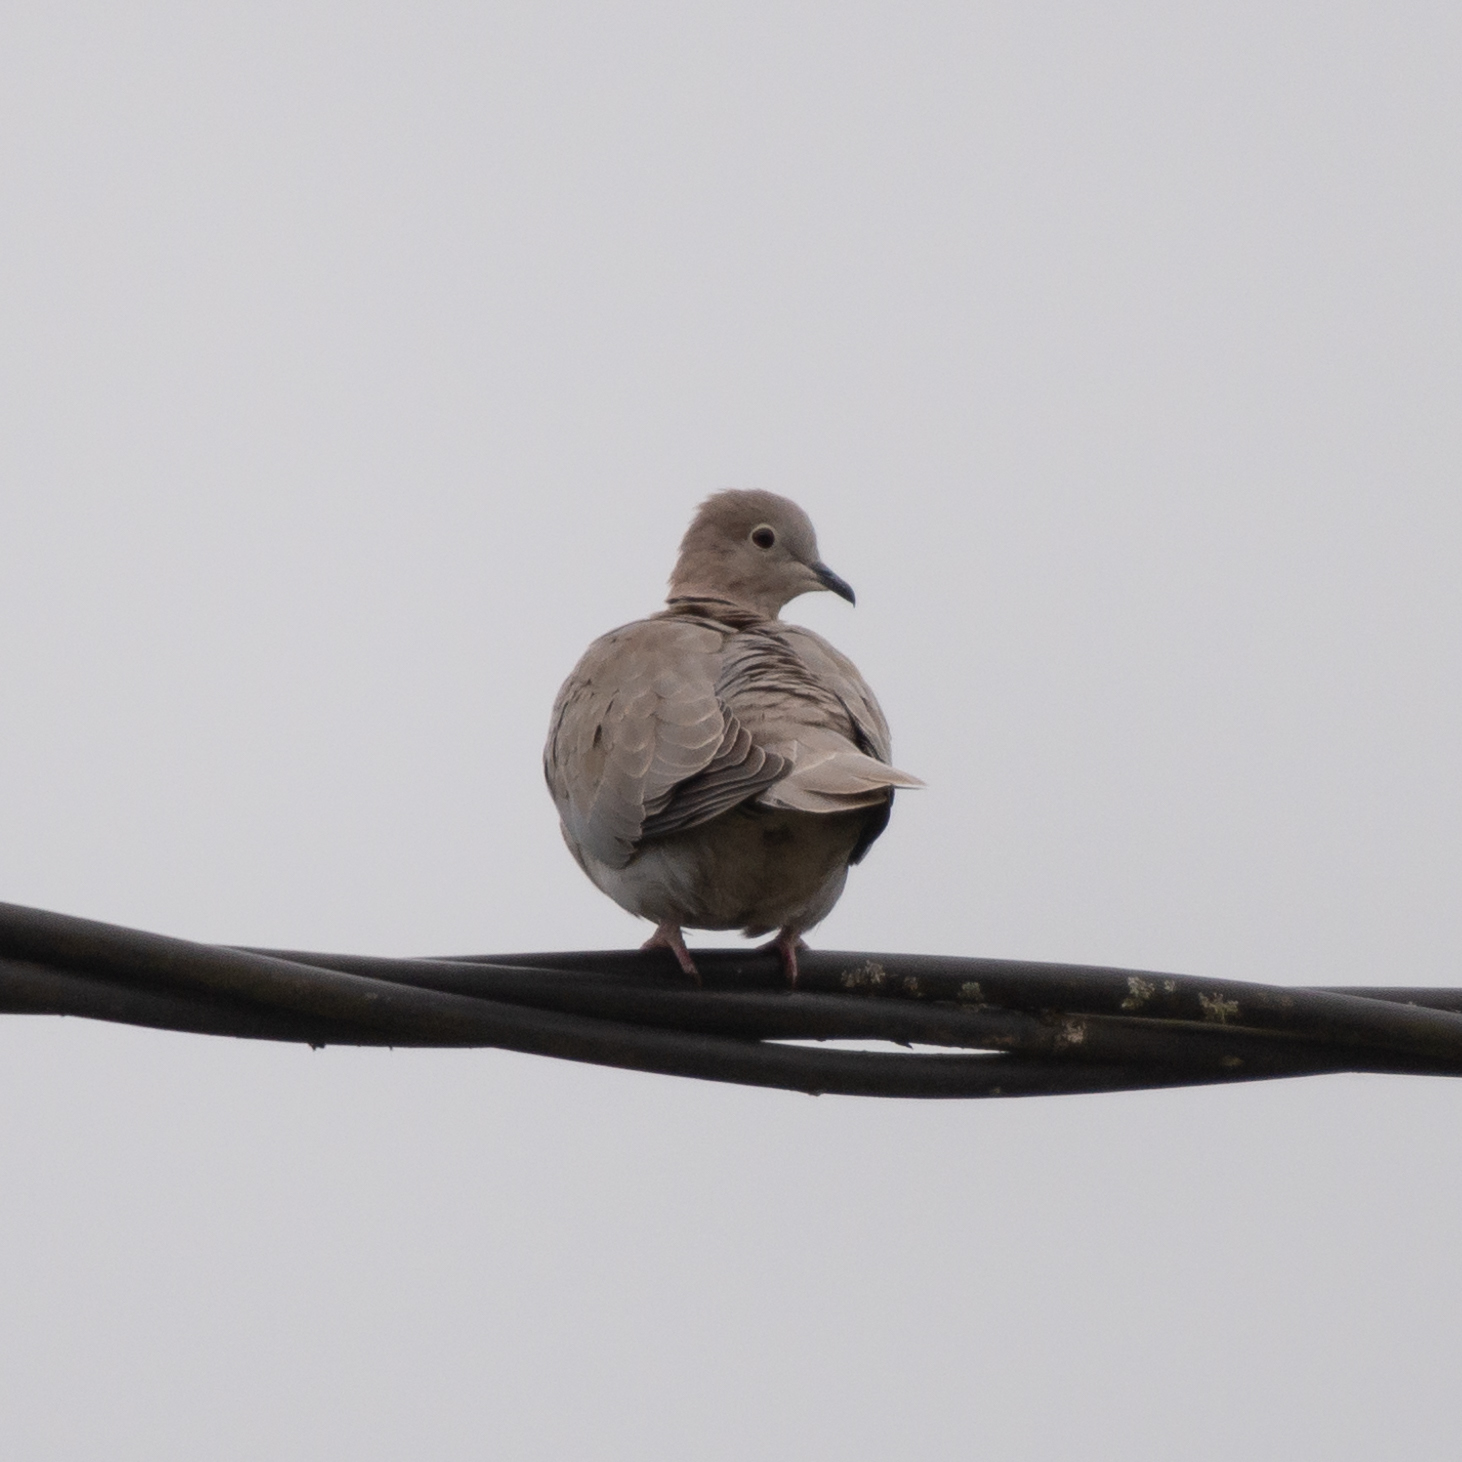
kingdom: Animalia
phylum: Chordata
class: Aves
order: Columbiformes
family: Columbidae
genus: Streptopelia
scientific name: Streptopelia decaocto
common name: Eurasian collared dove
